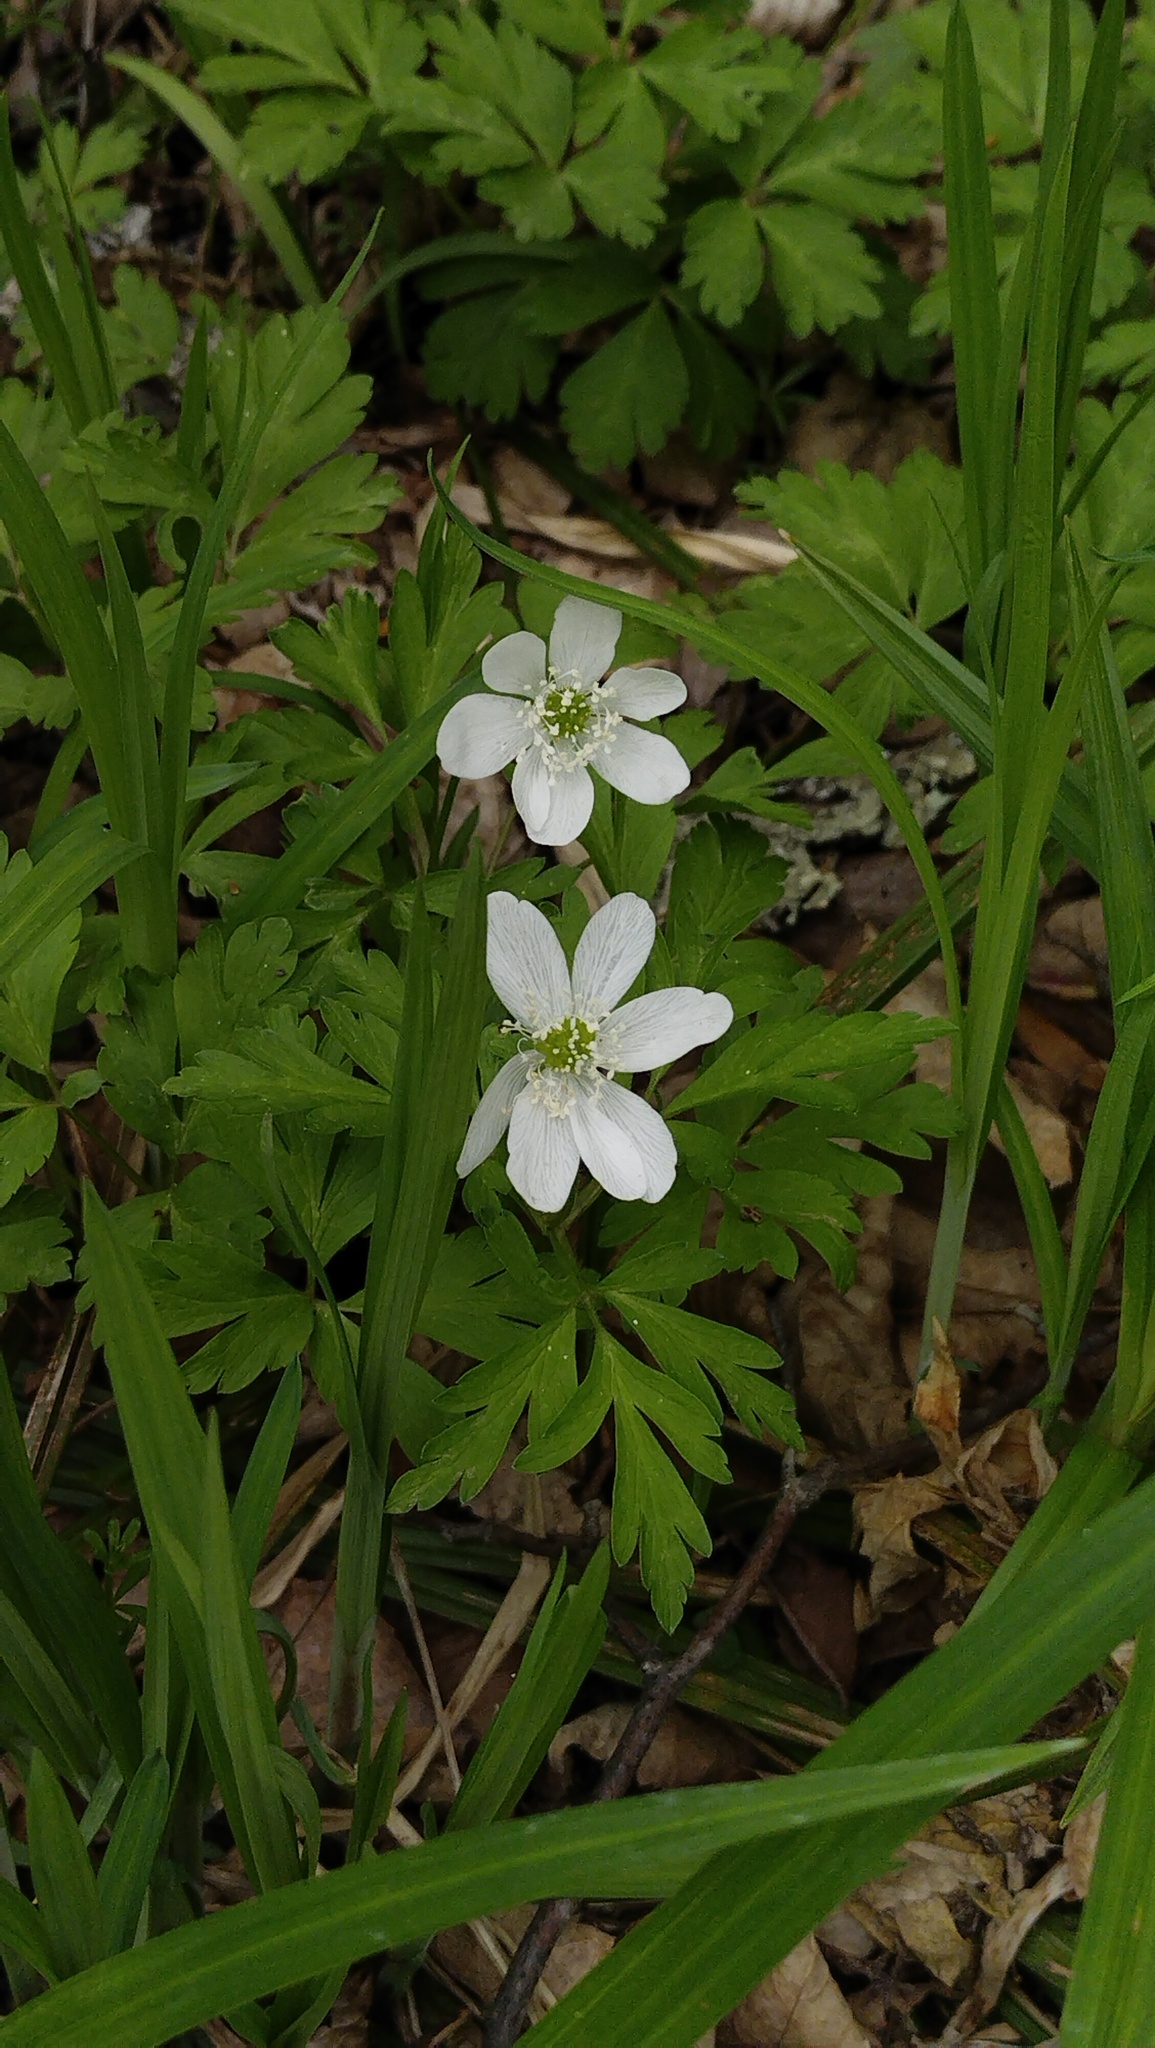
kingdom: Plantae
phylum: Tracheophyta
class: Magnoliopsida
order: Ranunculales
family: Ranunculaceae
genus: Anemone
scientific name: Anemone amurensis
